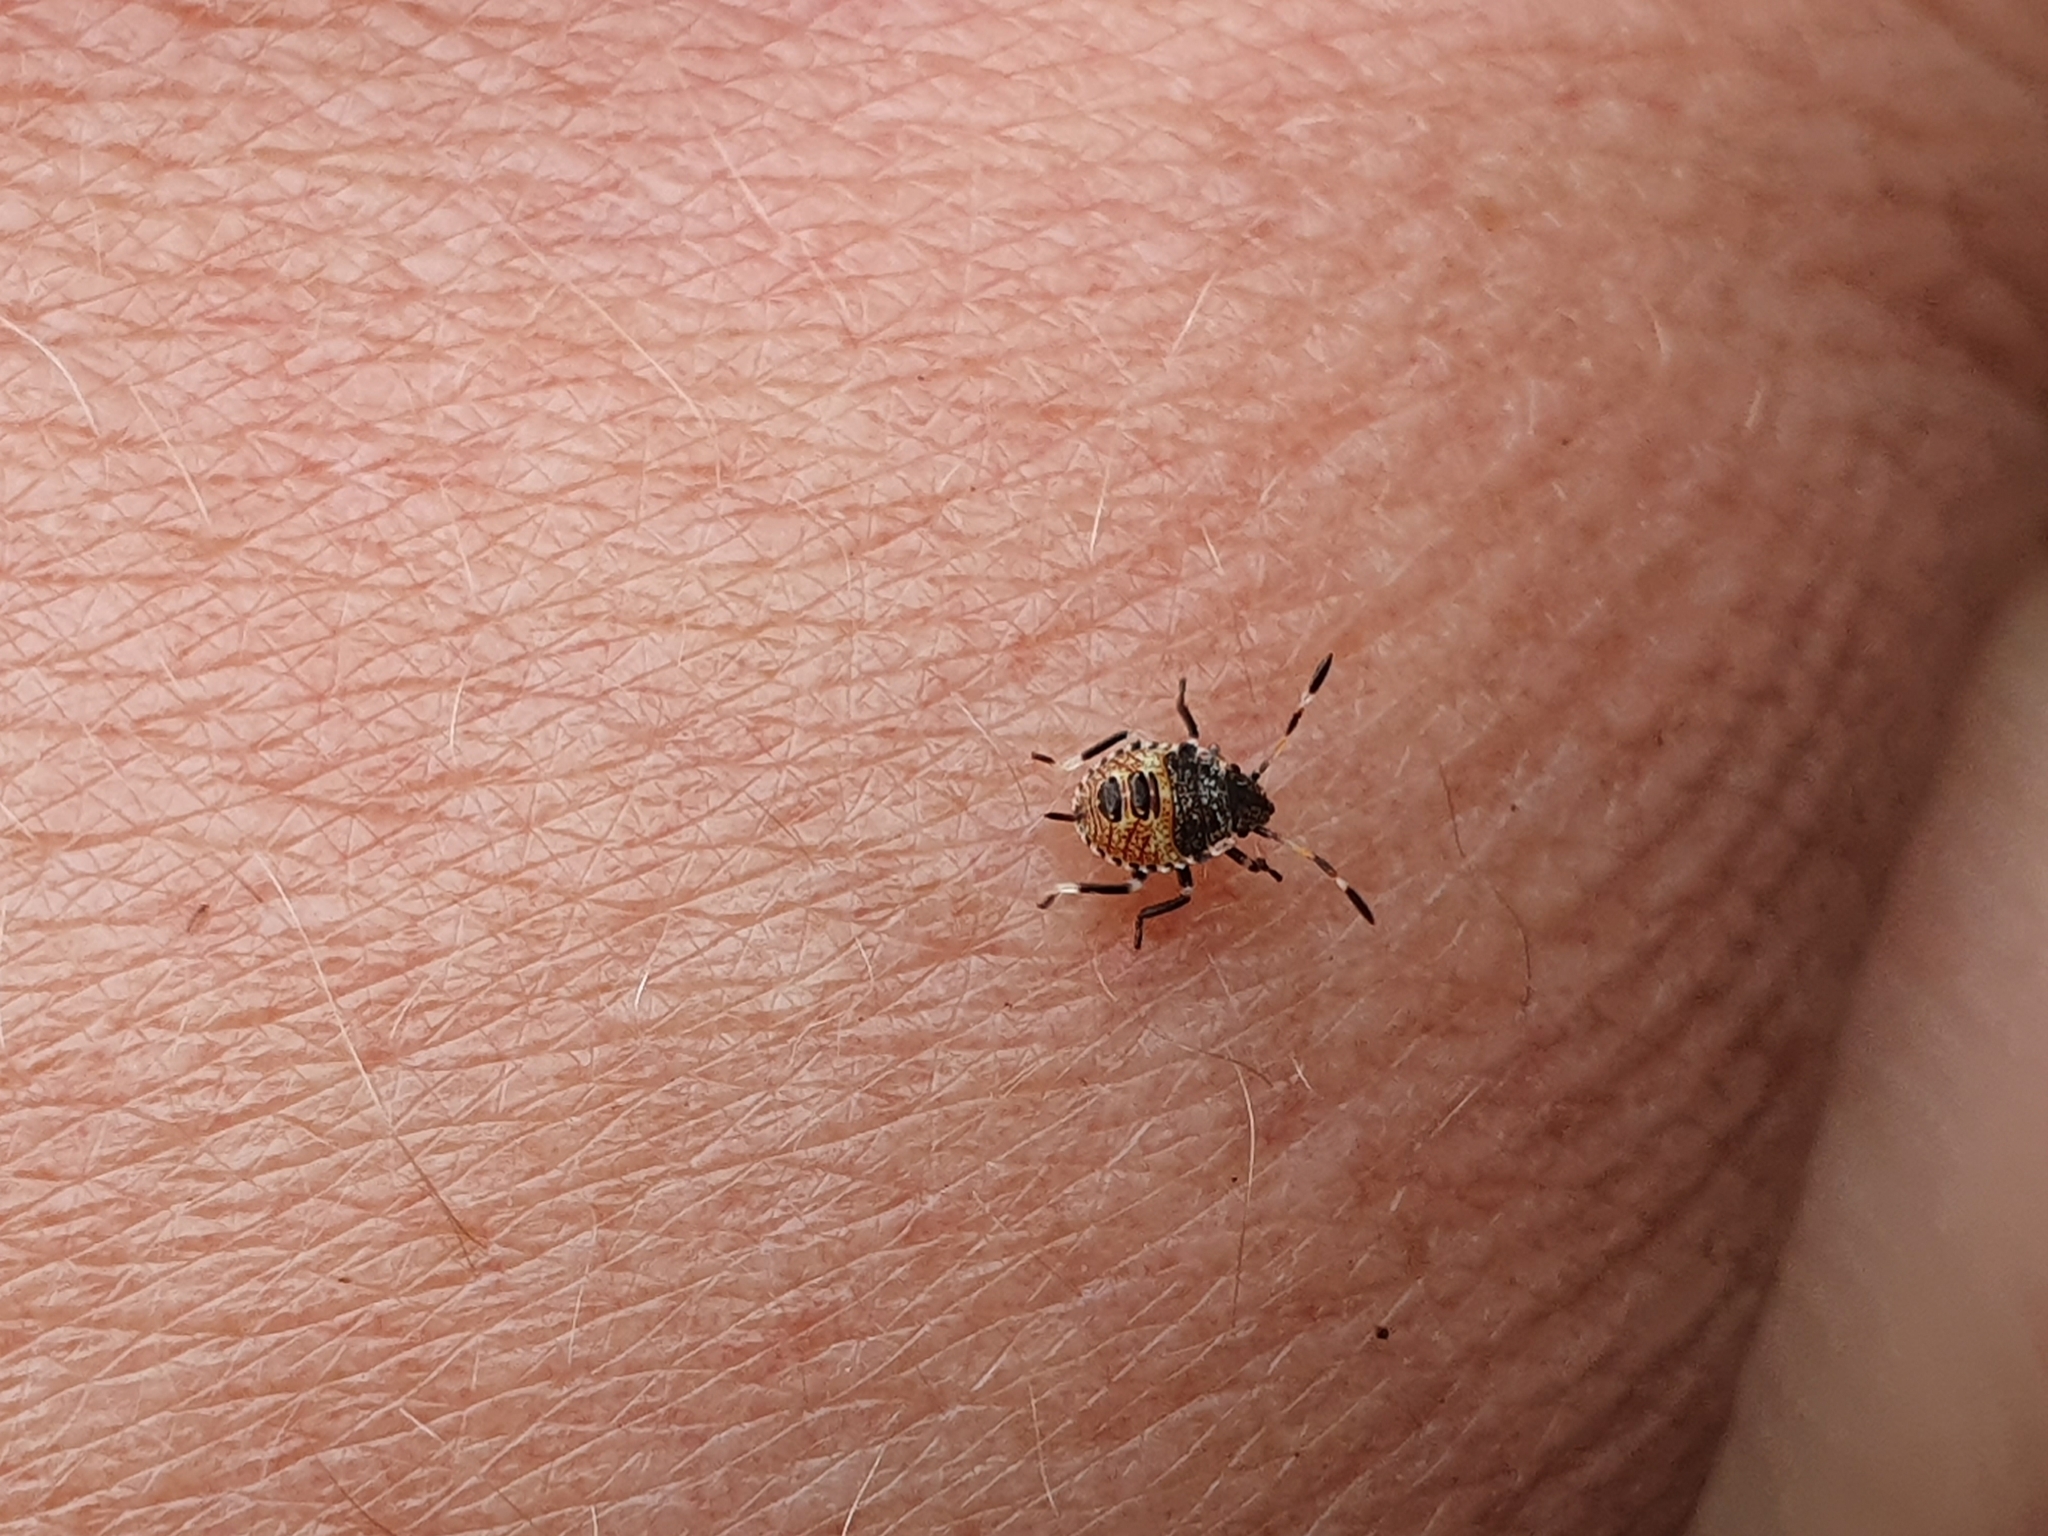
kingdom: Animalia
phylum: Arthropoda
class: Insecta
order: Hemiptera
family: Pentatomidae
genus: Cuspicona
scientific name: Cuspicona simplex
